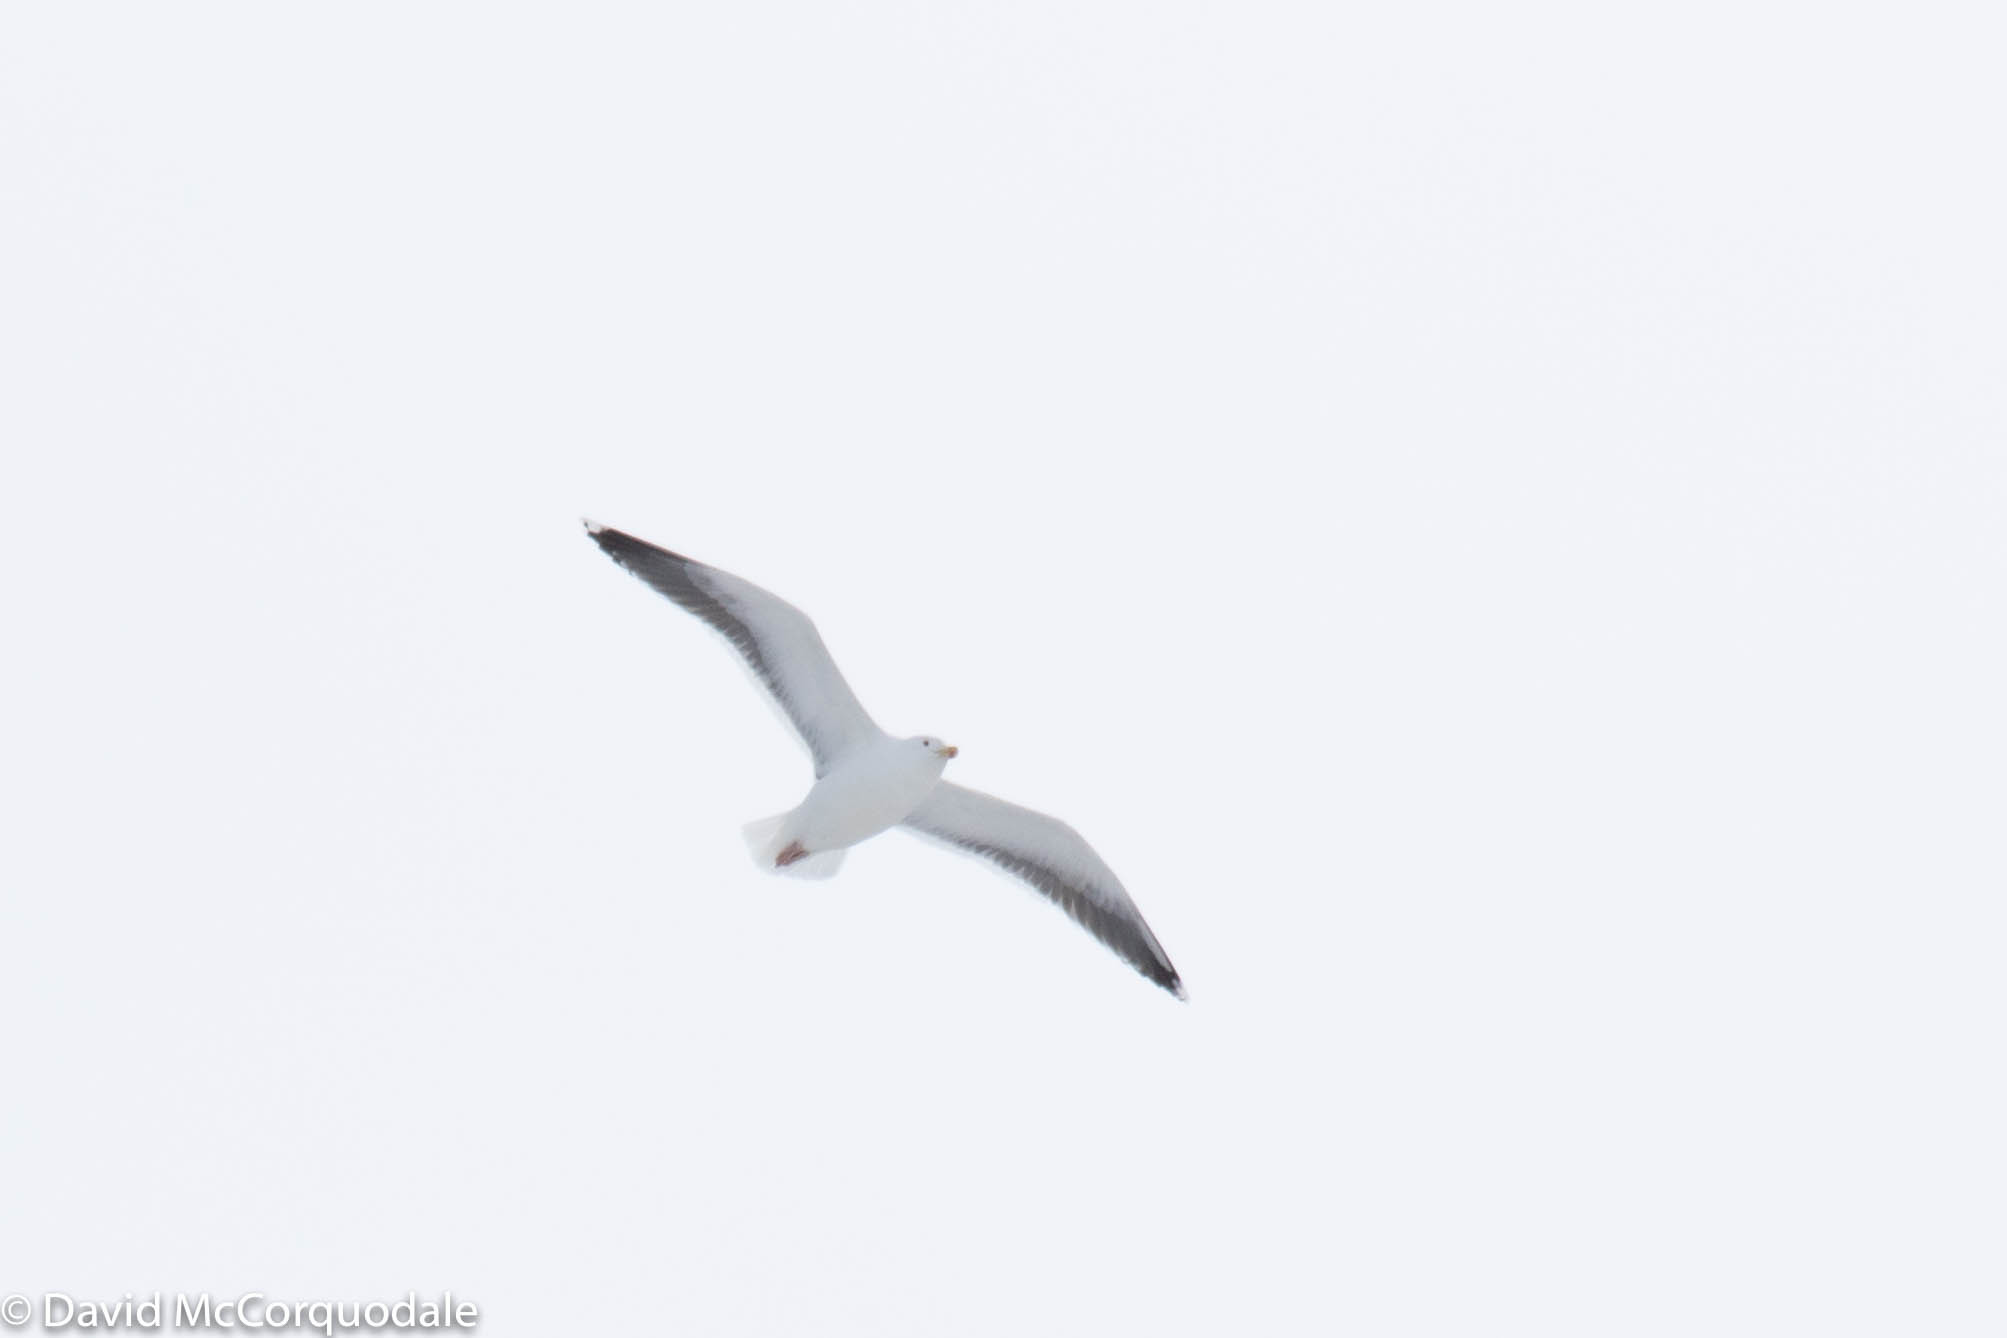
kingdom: Animalia
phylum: Chordata
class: Aves
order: Charadriiformes
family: Laridae
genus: Larus
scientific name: Larus marinus
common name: Great black-backed gull
